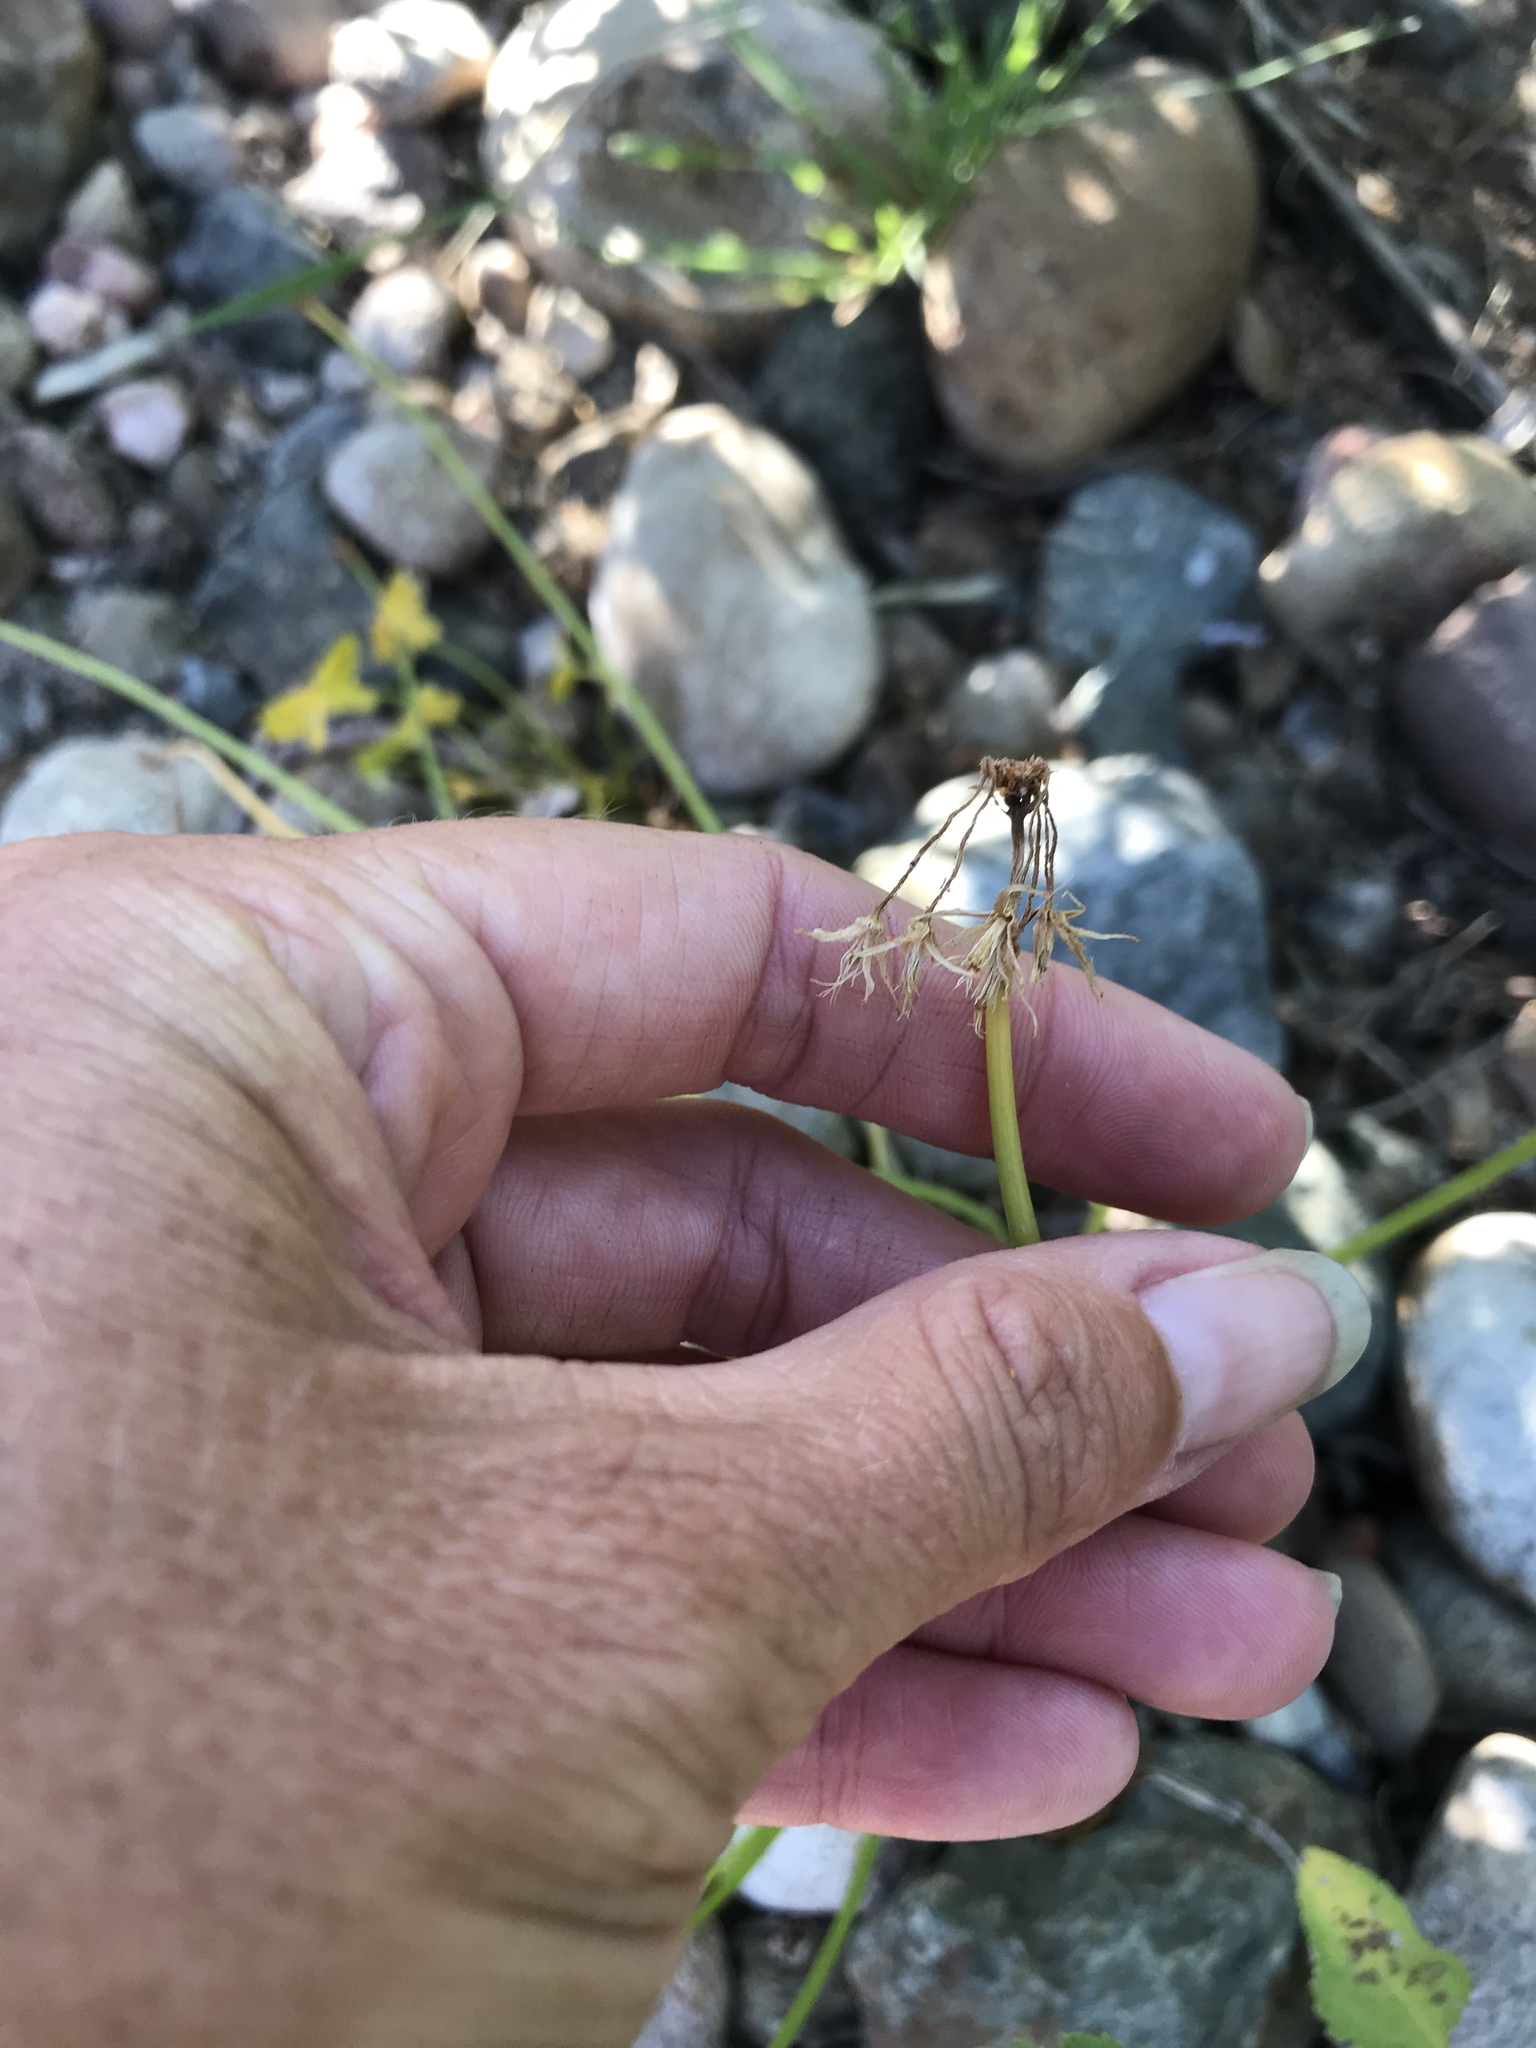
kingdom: Plantae
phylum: Tracheophyta
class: Magnoliopsida
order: Oxalidales
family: Oxalidaceae
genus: Oxalis
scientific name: Oxalis pes-caprae
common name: Bermuda-buttercup
